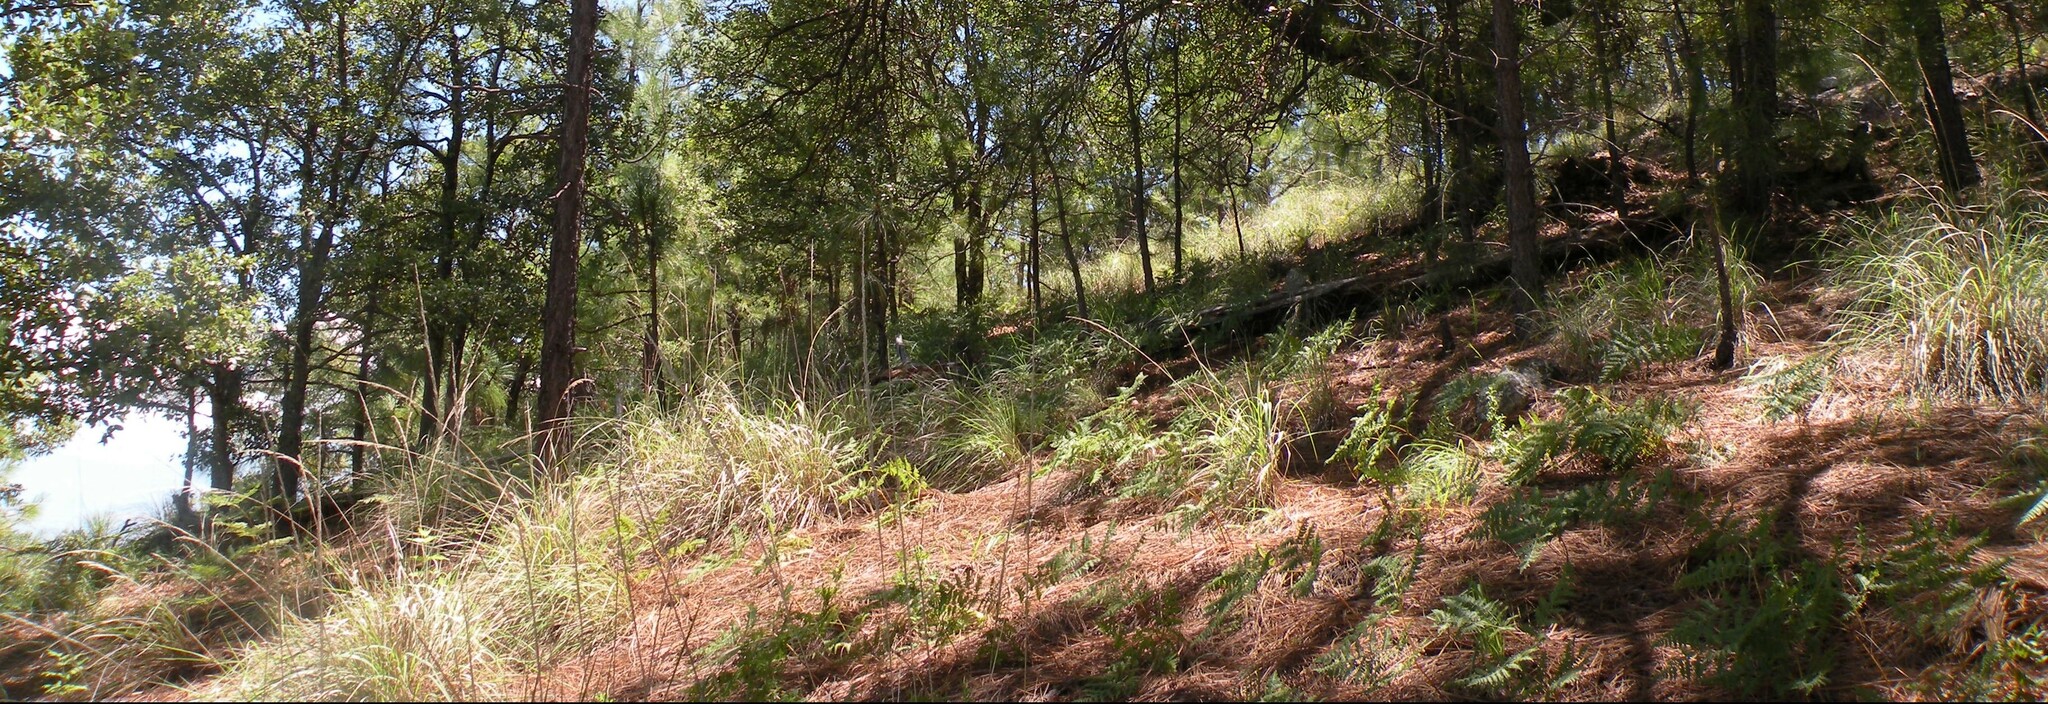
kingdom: Plantae
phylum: Tracheophyta
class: Polypodiopsida
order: Polypodiales
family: Dennstaedtiaceae
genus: Pteridium
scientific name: Pteridium aquilinum
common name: Bracken
